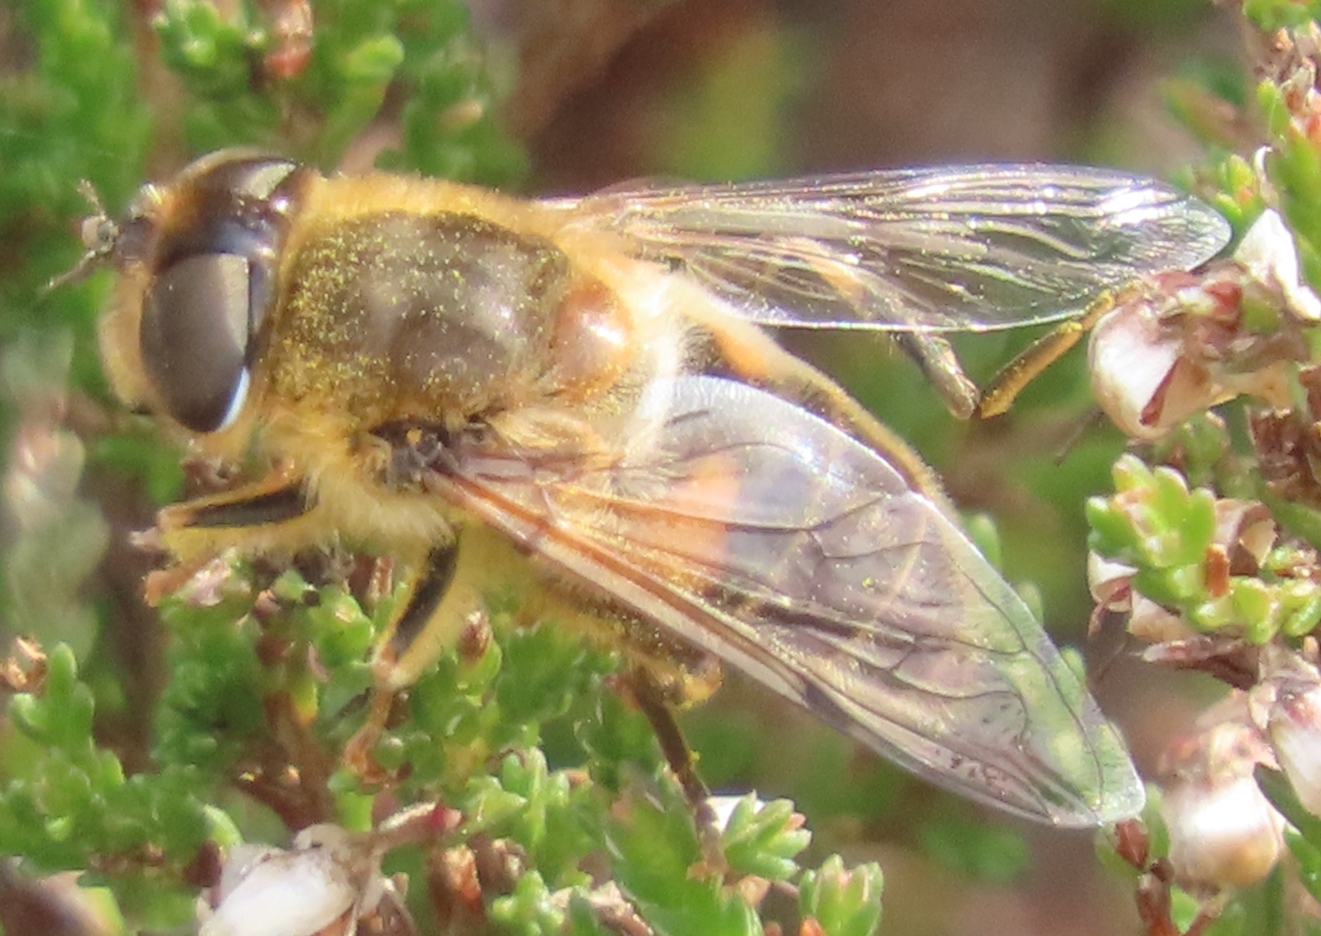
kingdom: Animalia
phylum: Arthropoda
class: Insecta
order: Diptera
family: Syrphidae
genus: Eristalis
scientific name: Eristalis pertinax
